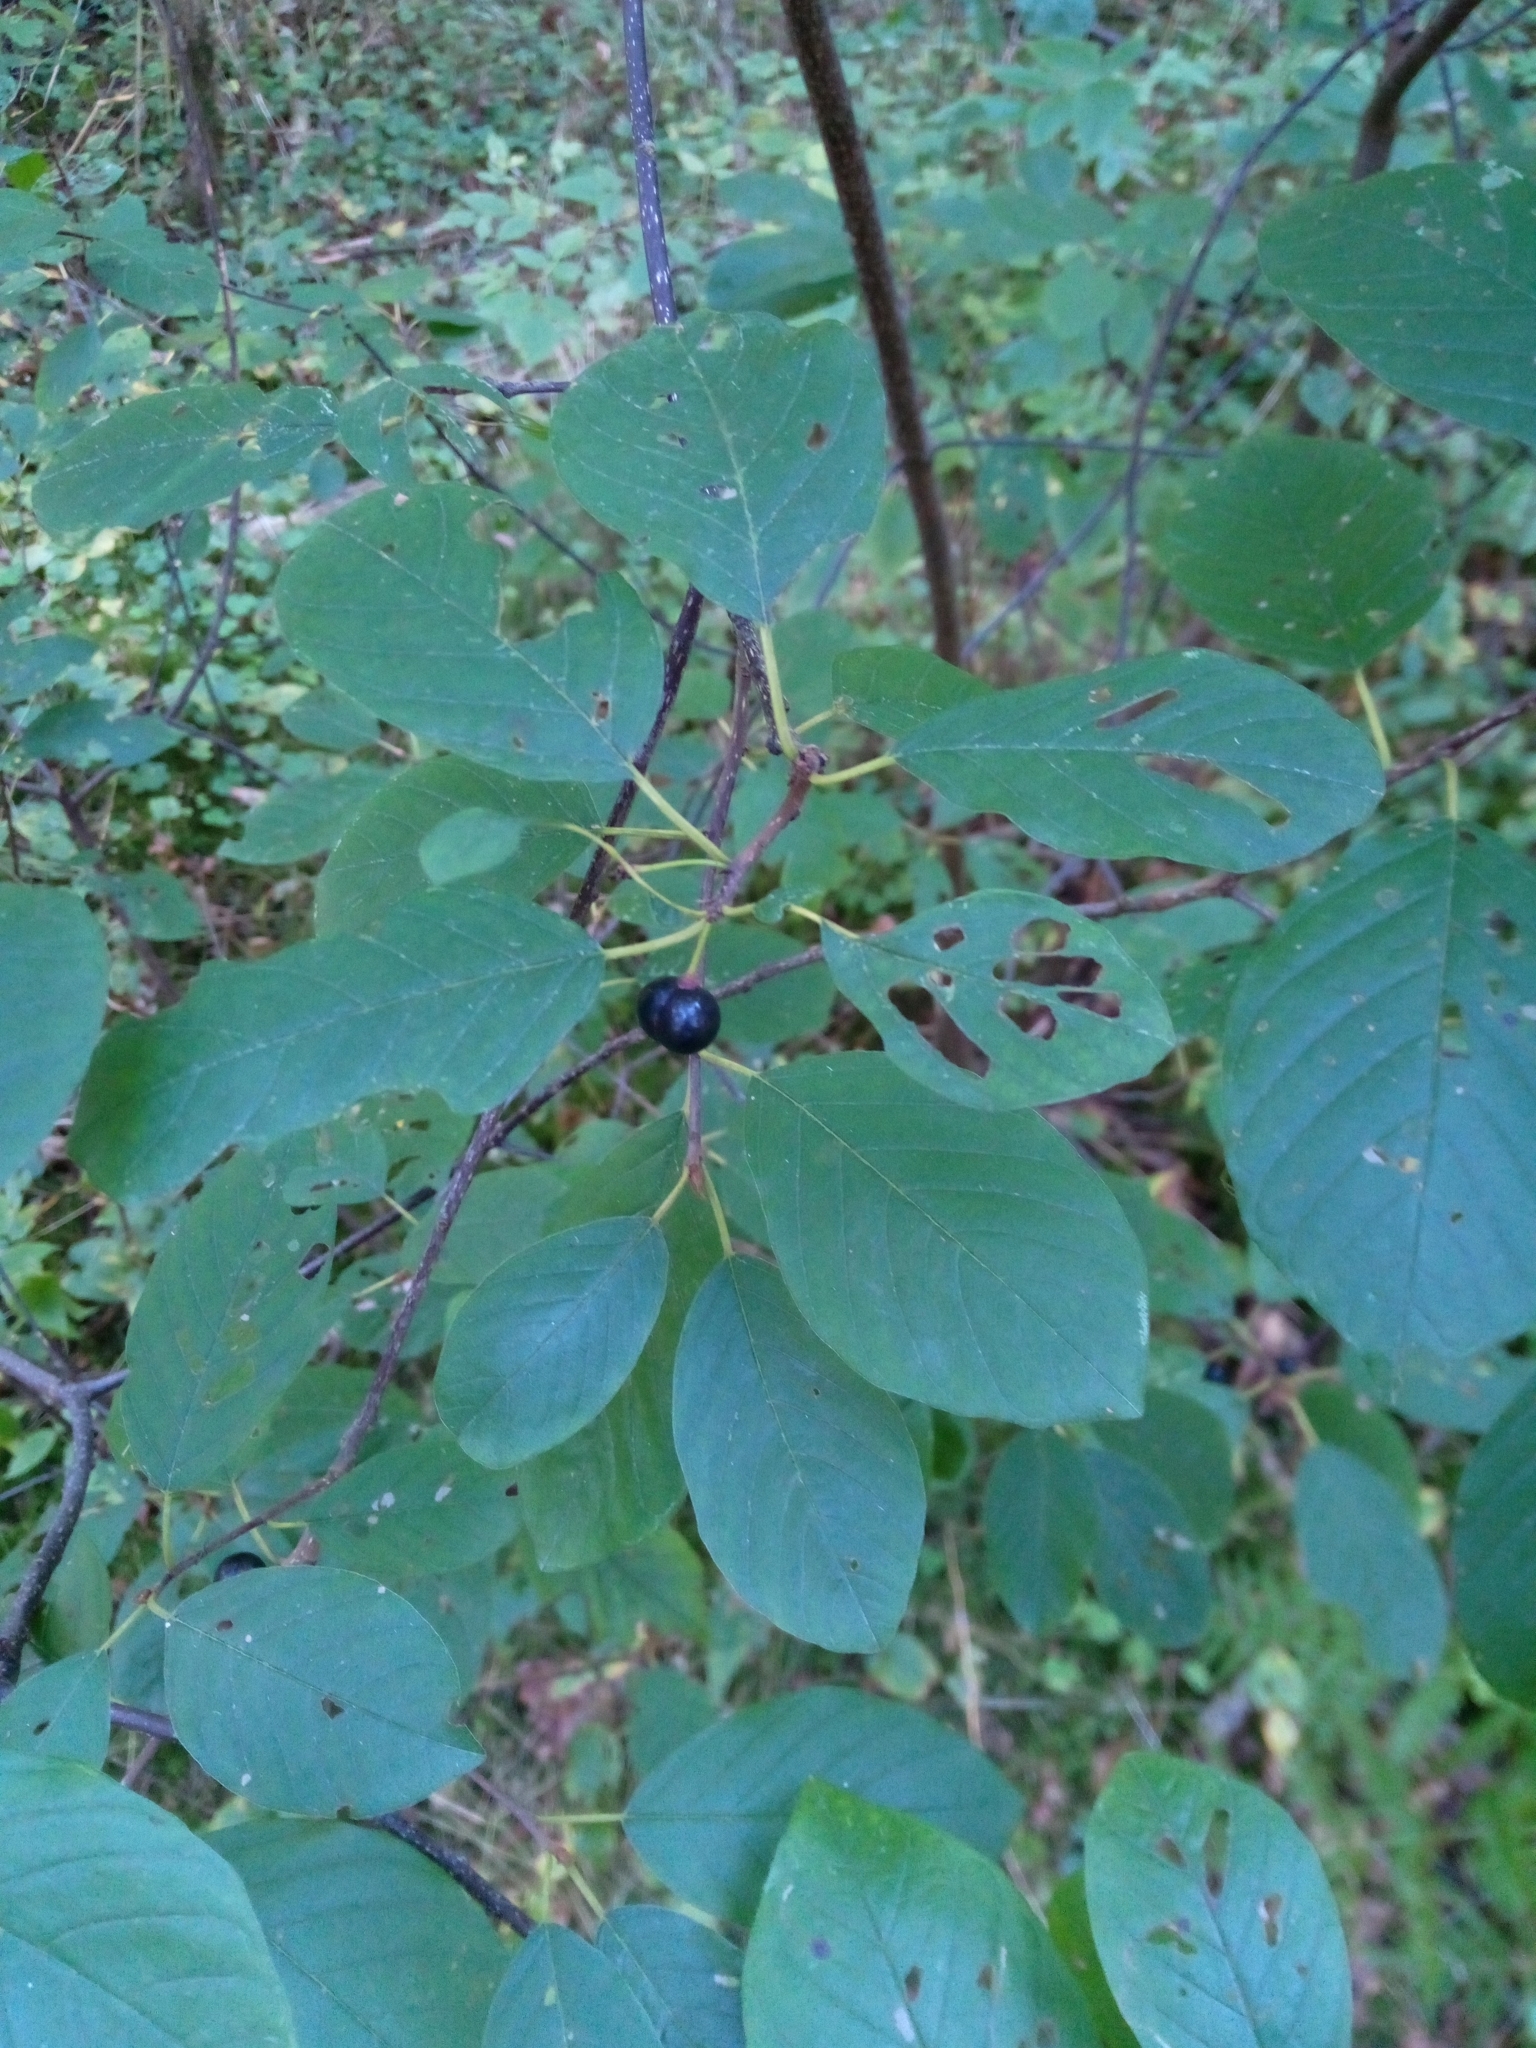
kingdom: Plantae
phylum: Tracheophyta
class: Magnoliopsida
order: Rosales
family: Rhamnaceae
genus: Frangula
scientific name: Frangula alnus
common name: Alder buckthorn
